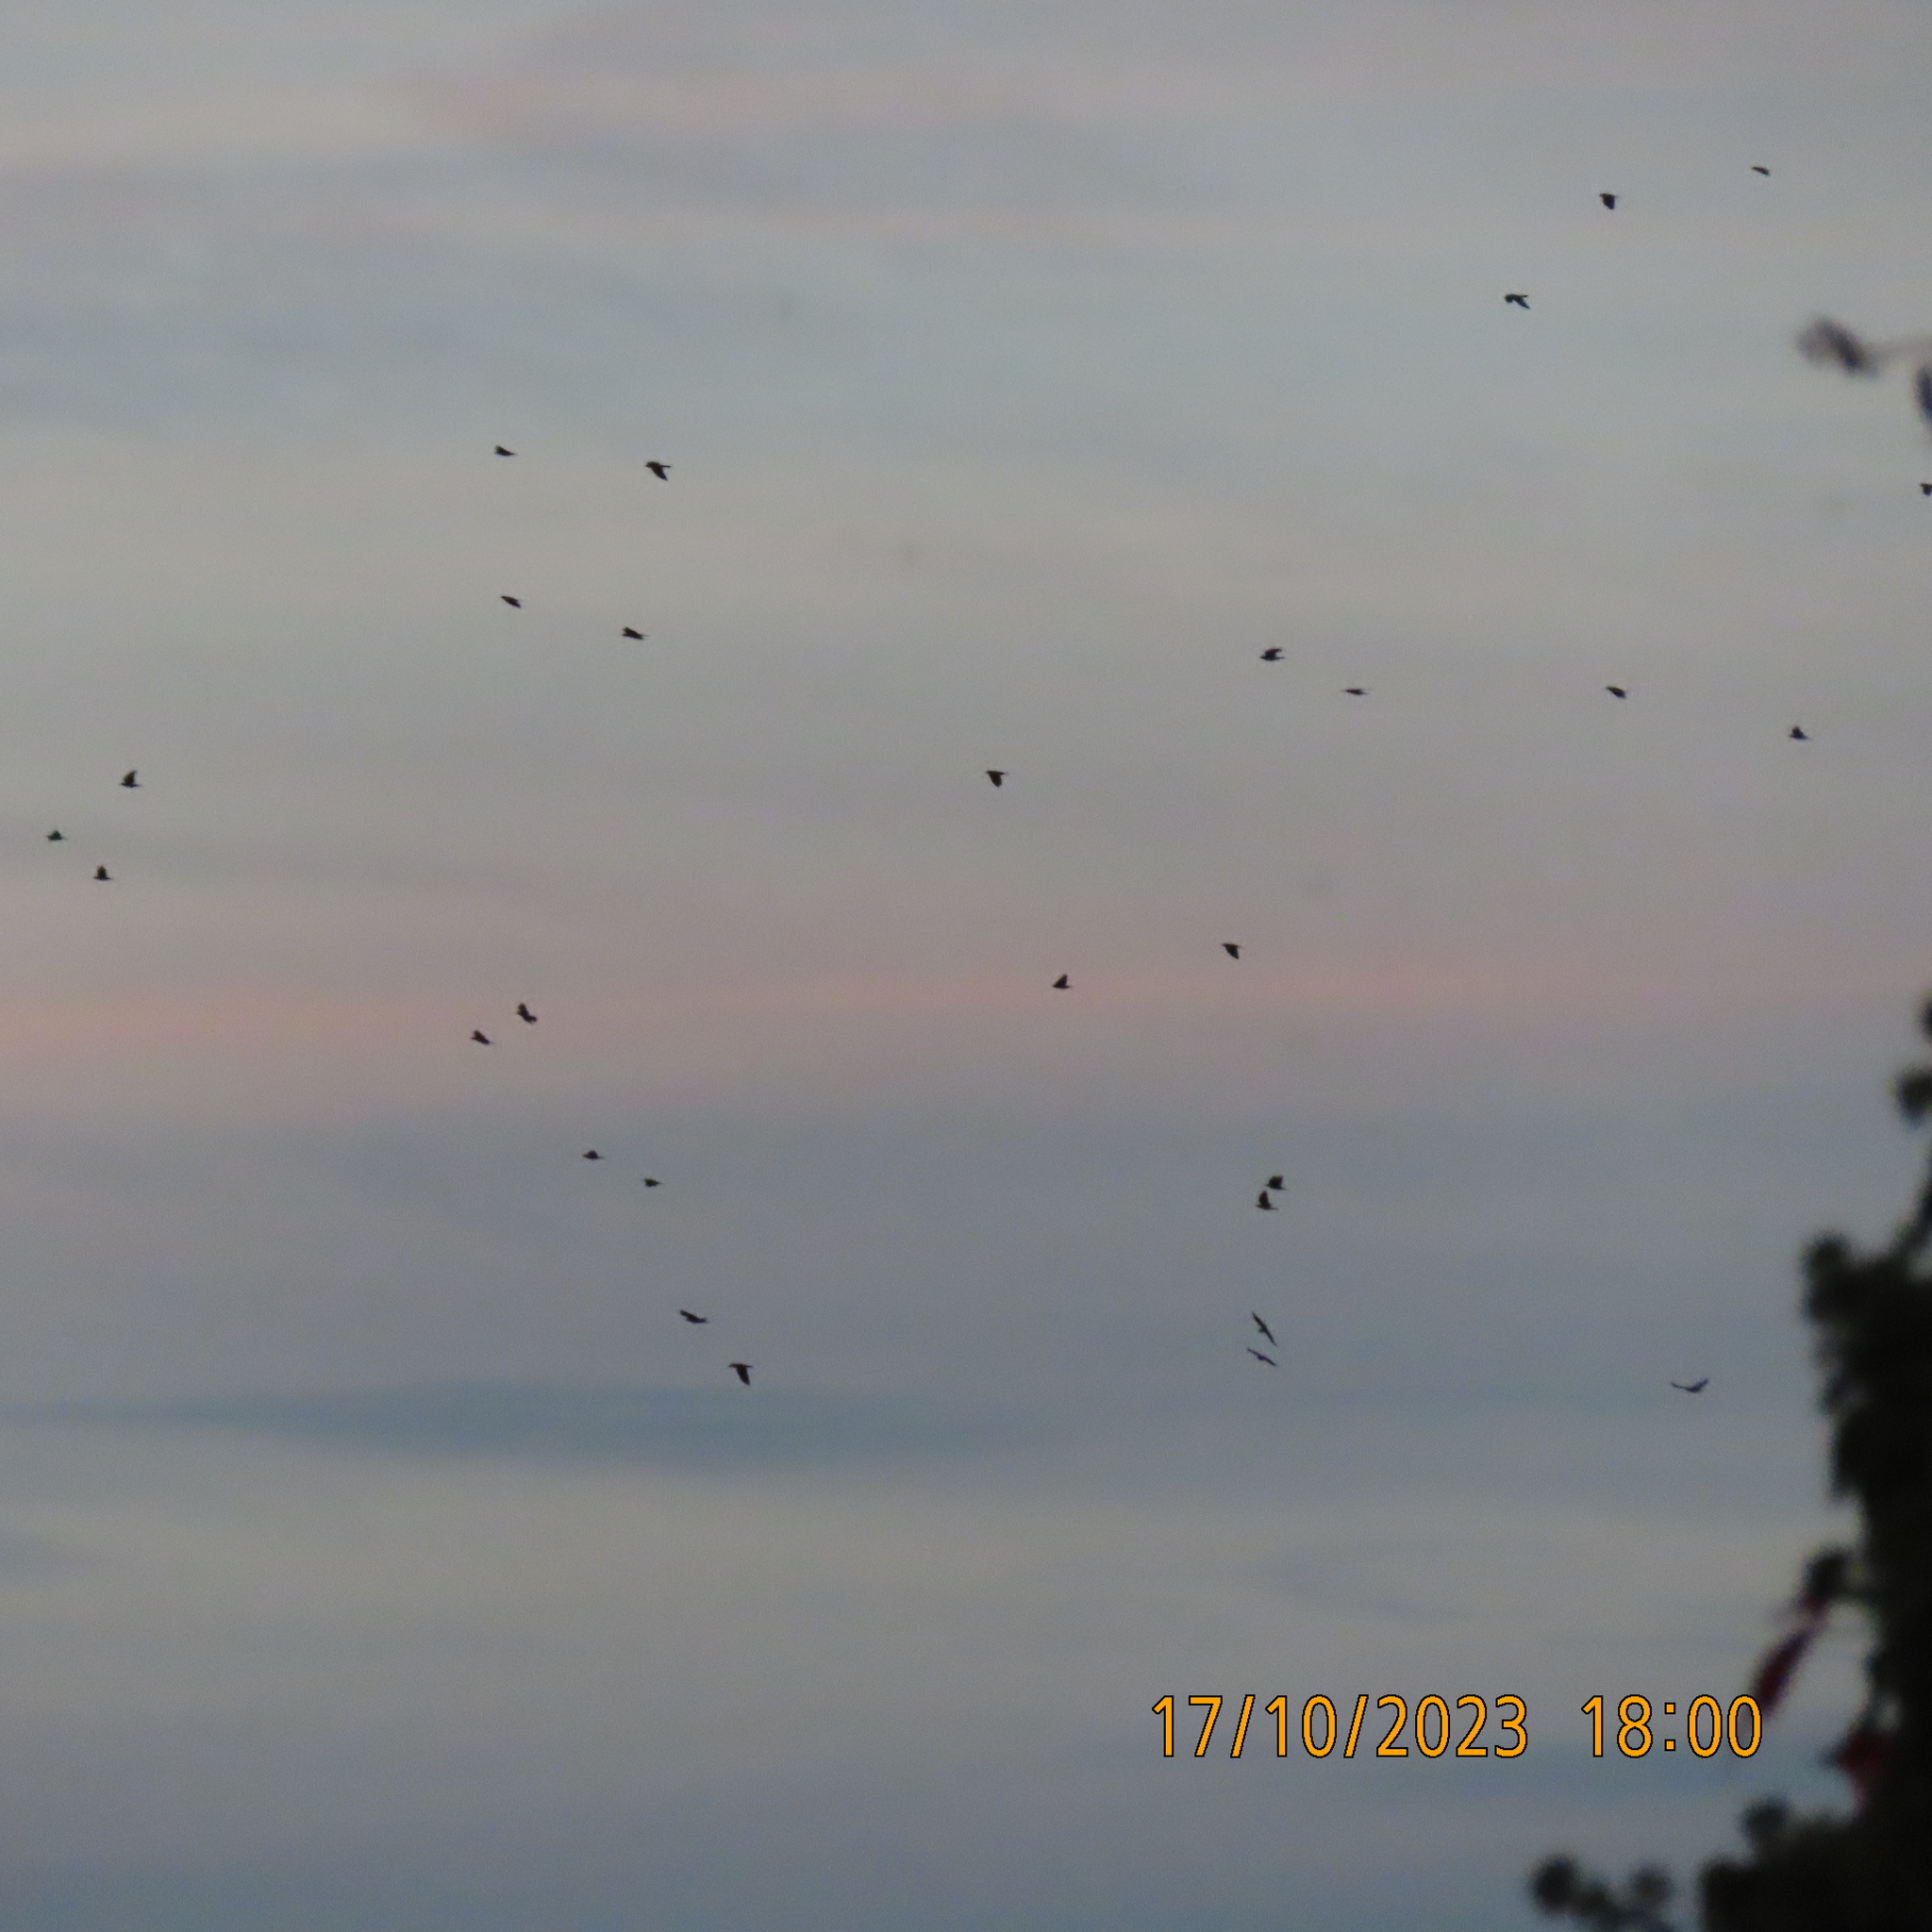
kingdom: Animalia
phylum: Chordata
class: Aves
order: Passeriformes
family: Corvidae
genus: Corvus
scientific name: Corvus corone
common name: Carrion crow
